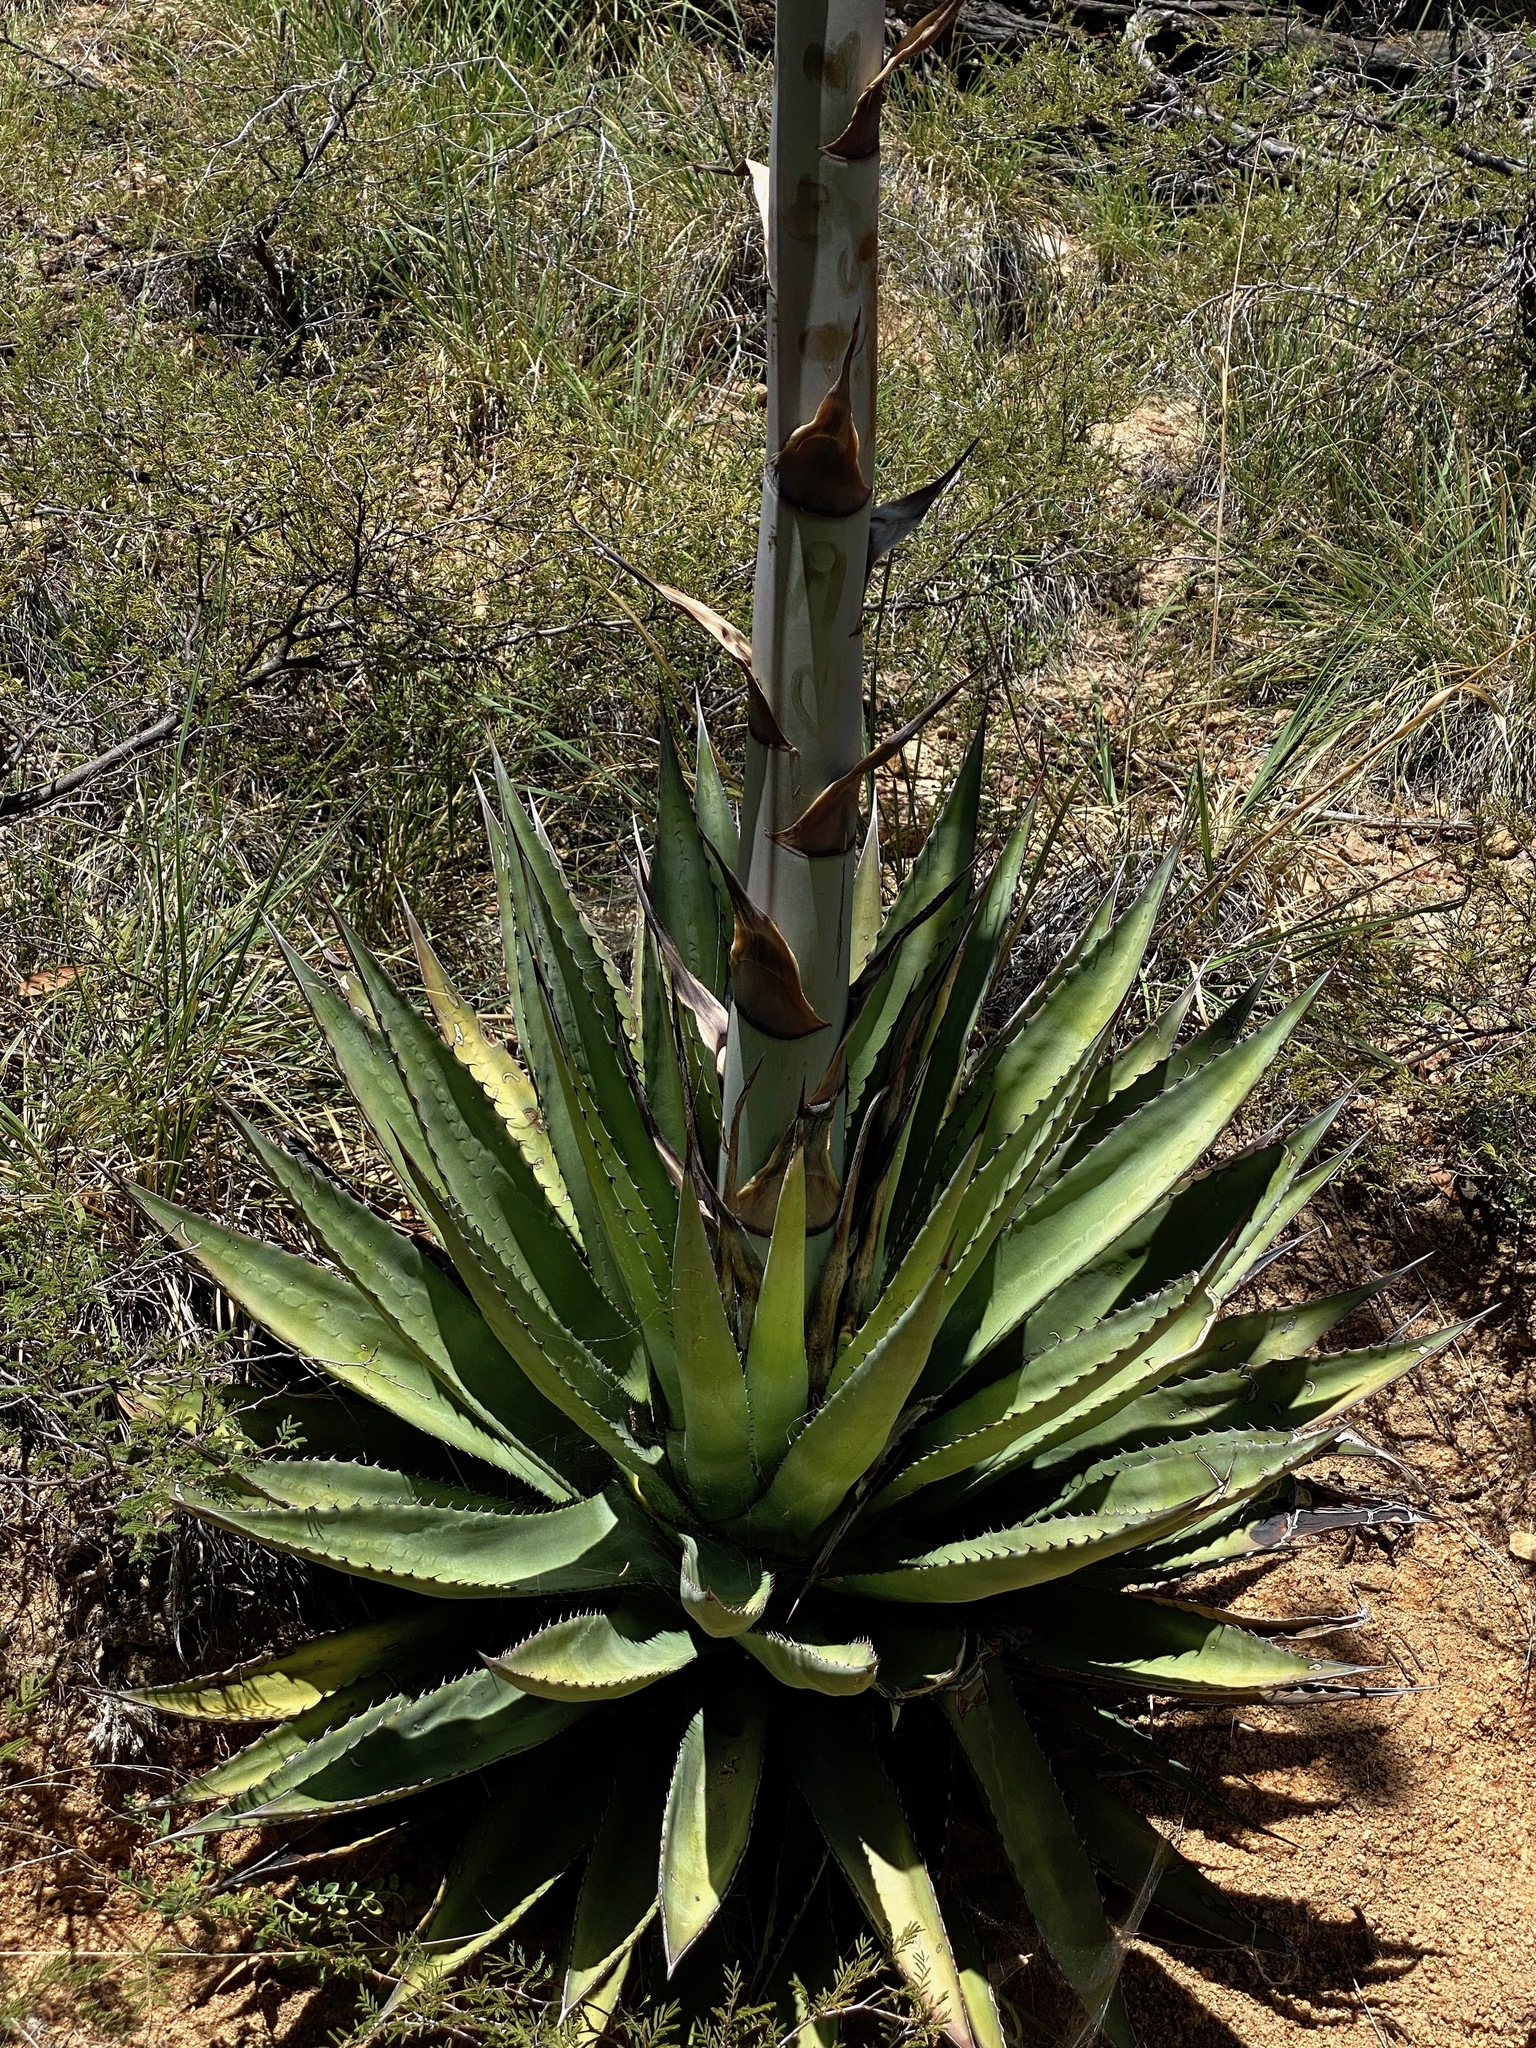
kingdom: Plantae
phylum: Tracheophyta
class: Liliopsida
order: Asparagales
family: Asparagaceae
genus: Agave
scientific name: Agave palmeri
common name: Palmer agave
